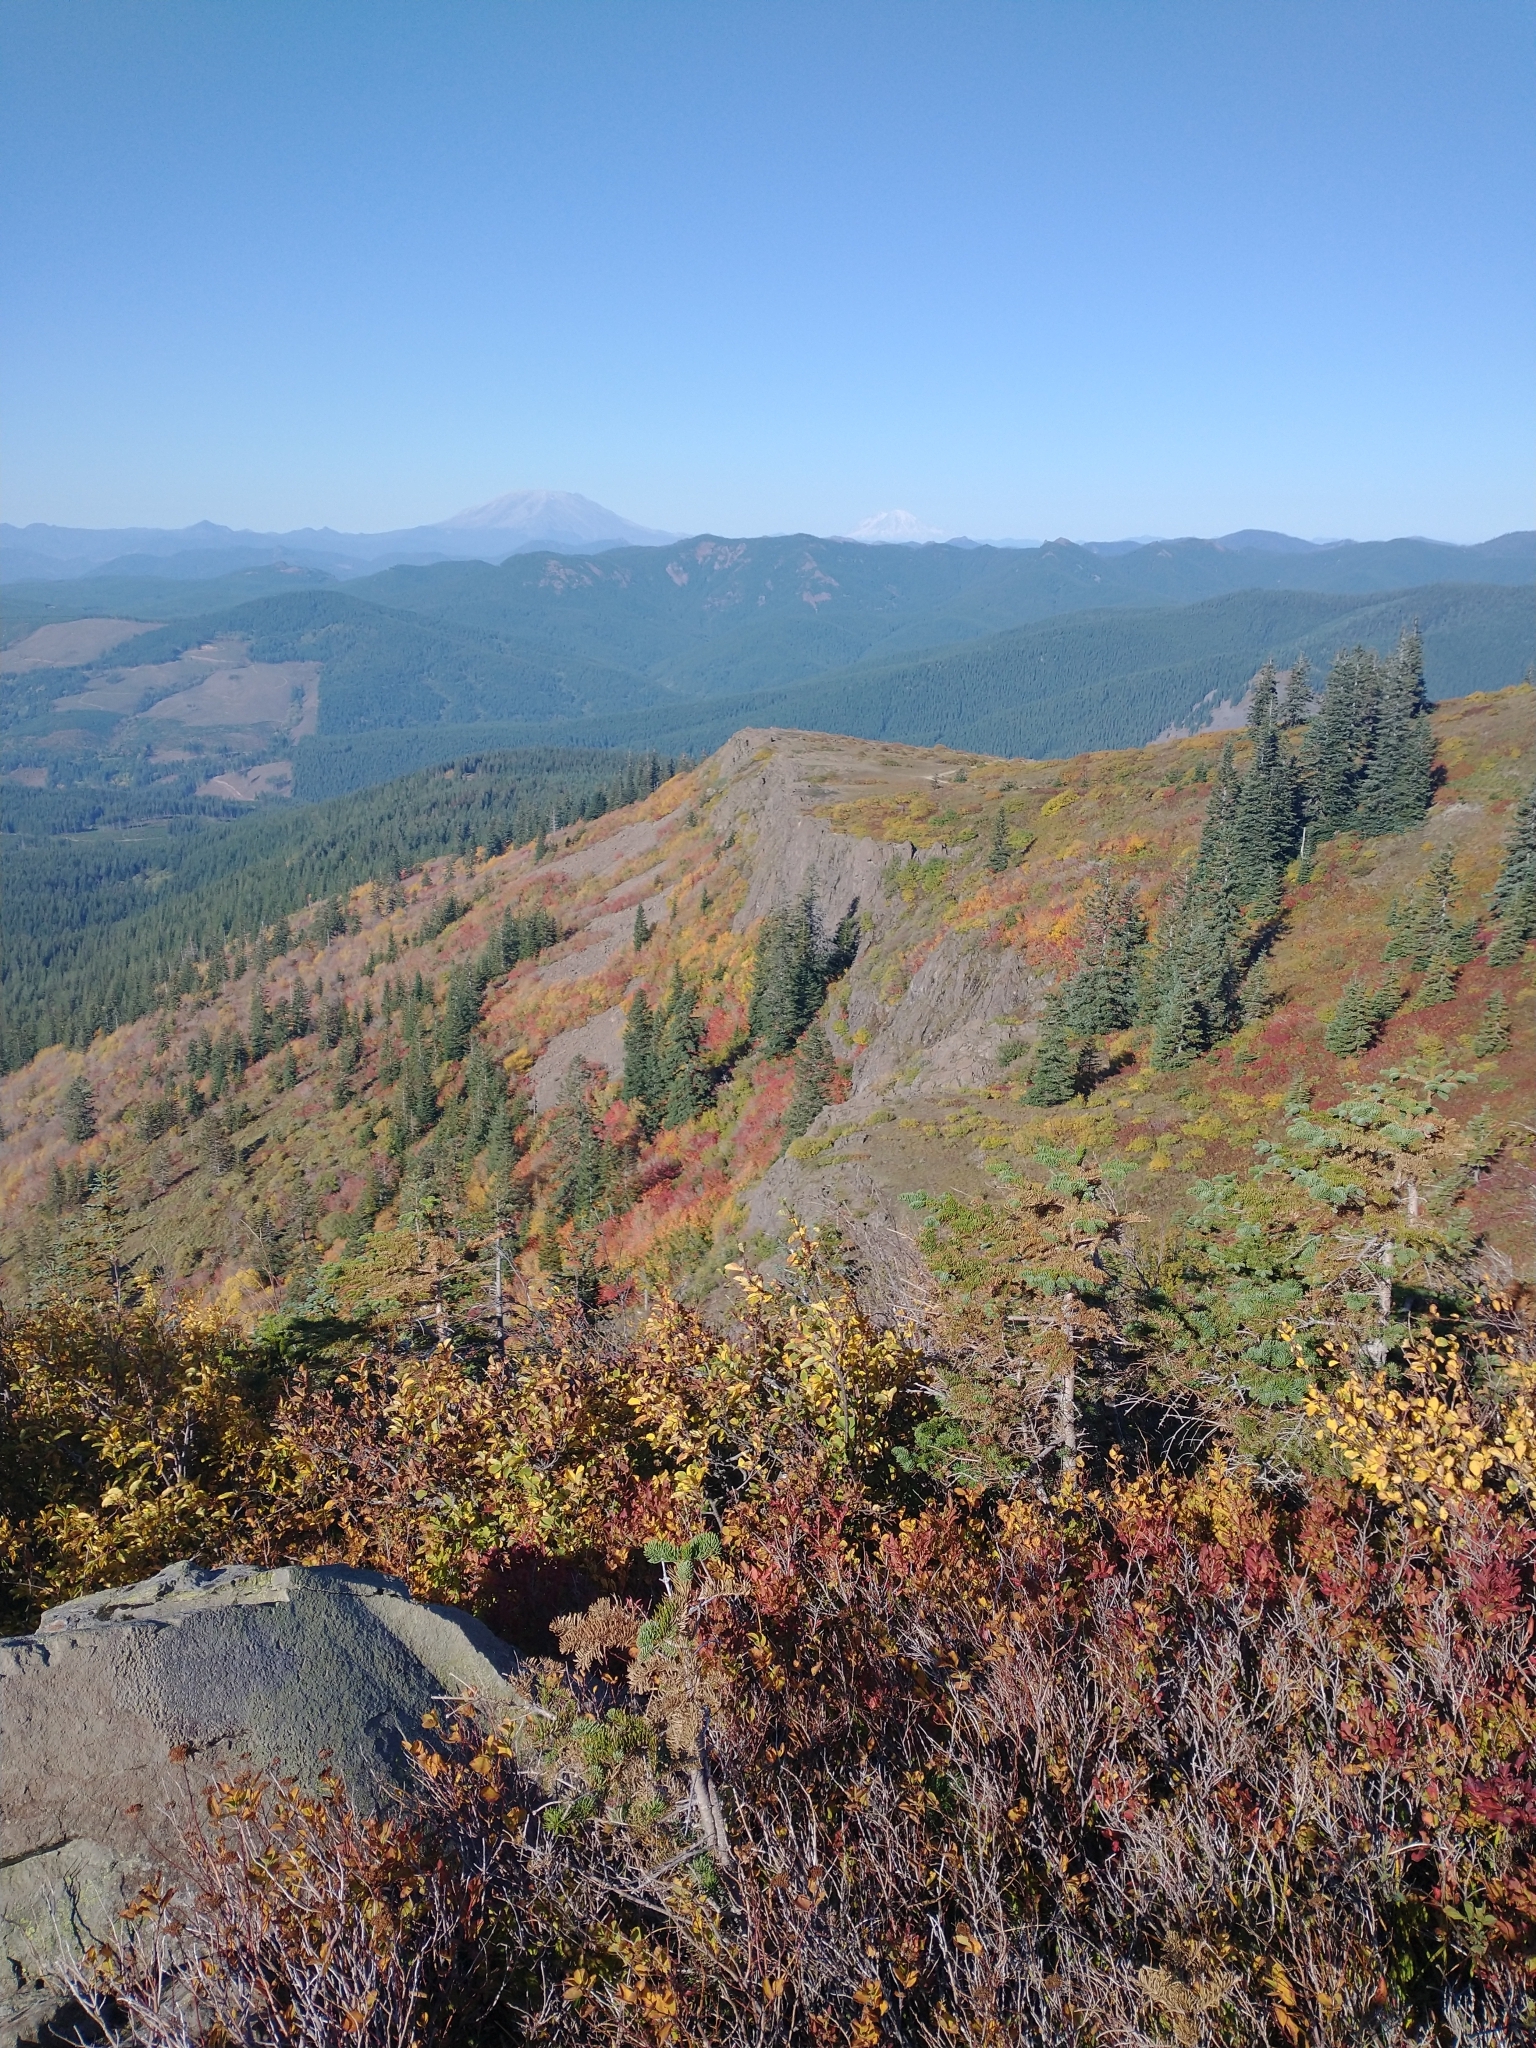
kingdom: Plantae
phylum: Tracheophyta
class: Pinopsida
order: Pinales
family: Pinaceae
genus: Abies
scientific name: Abies procera
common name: Noble fir
